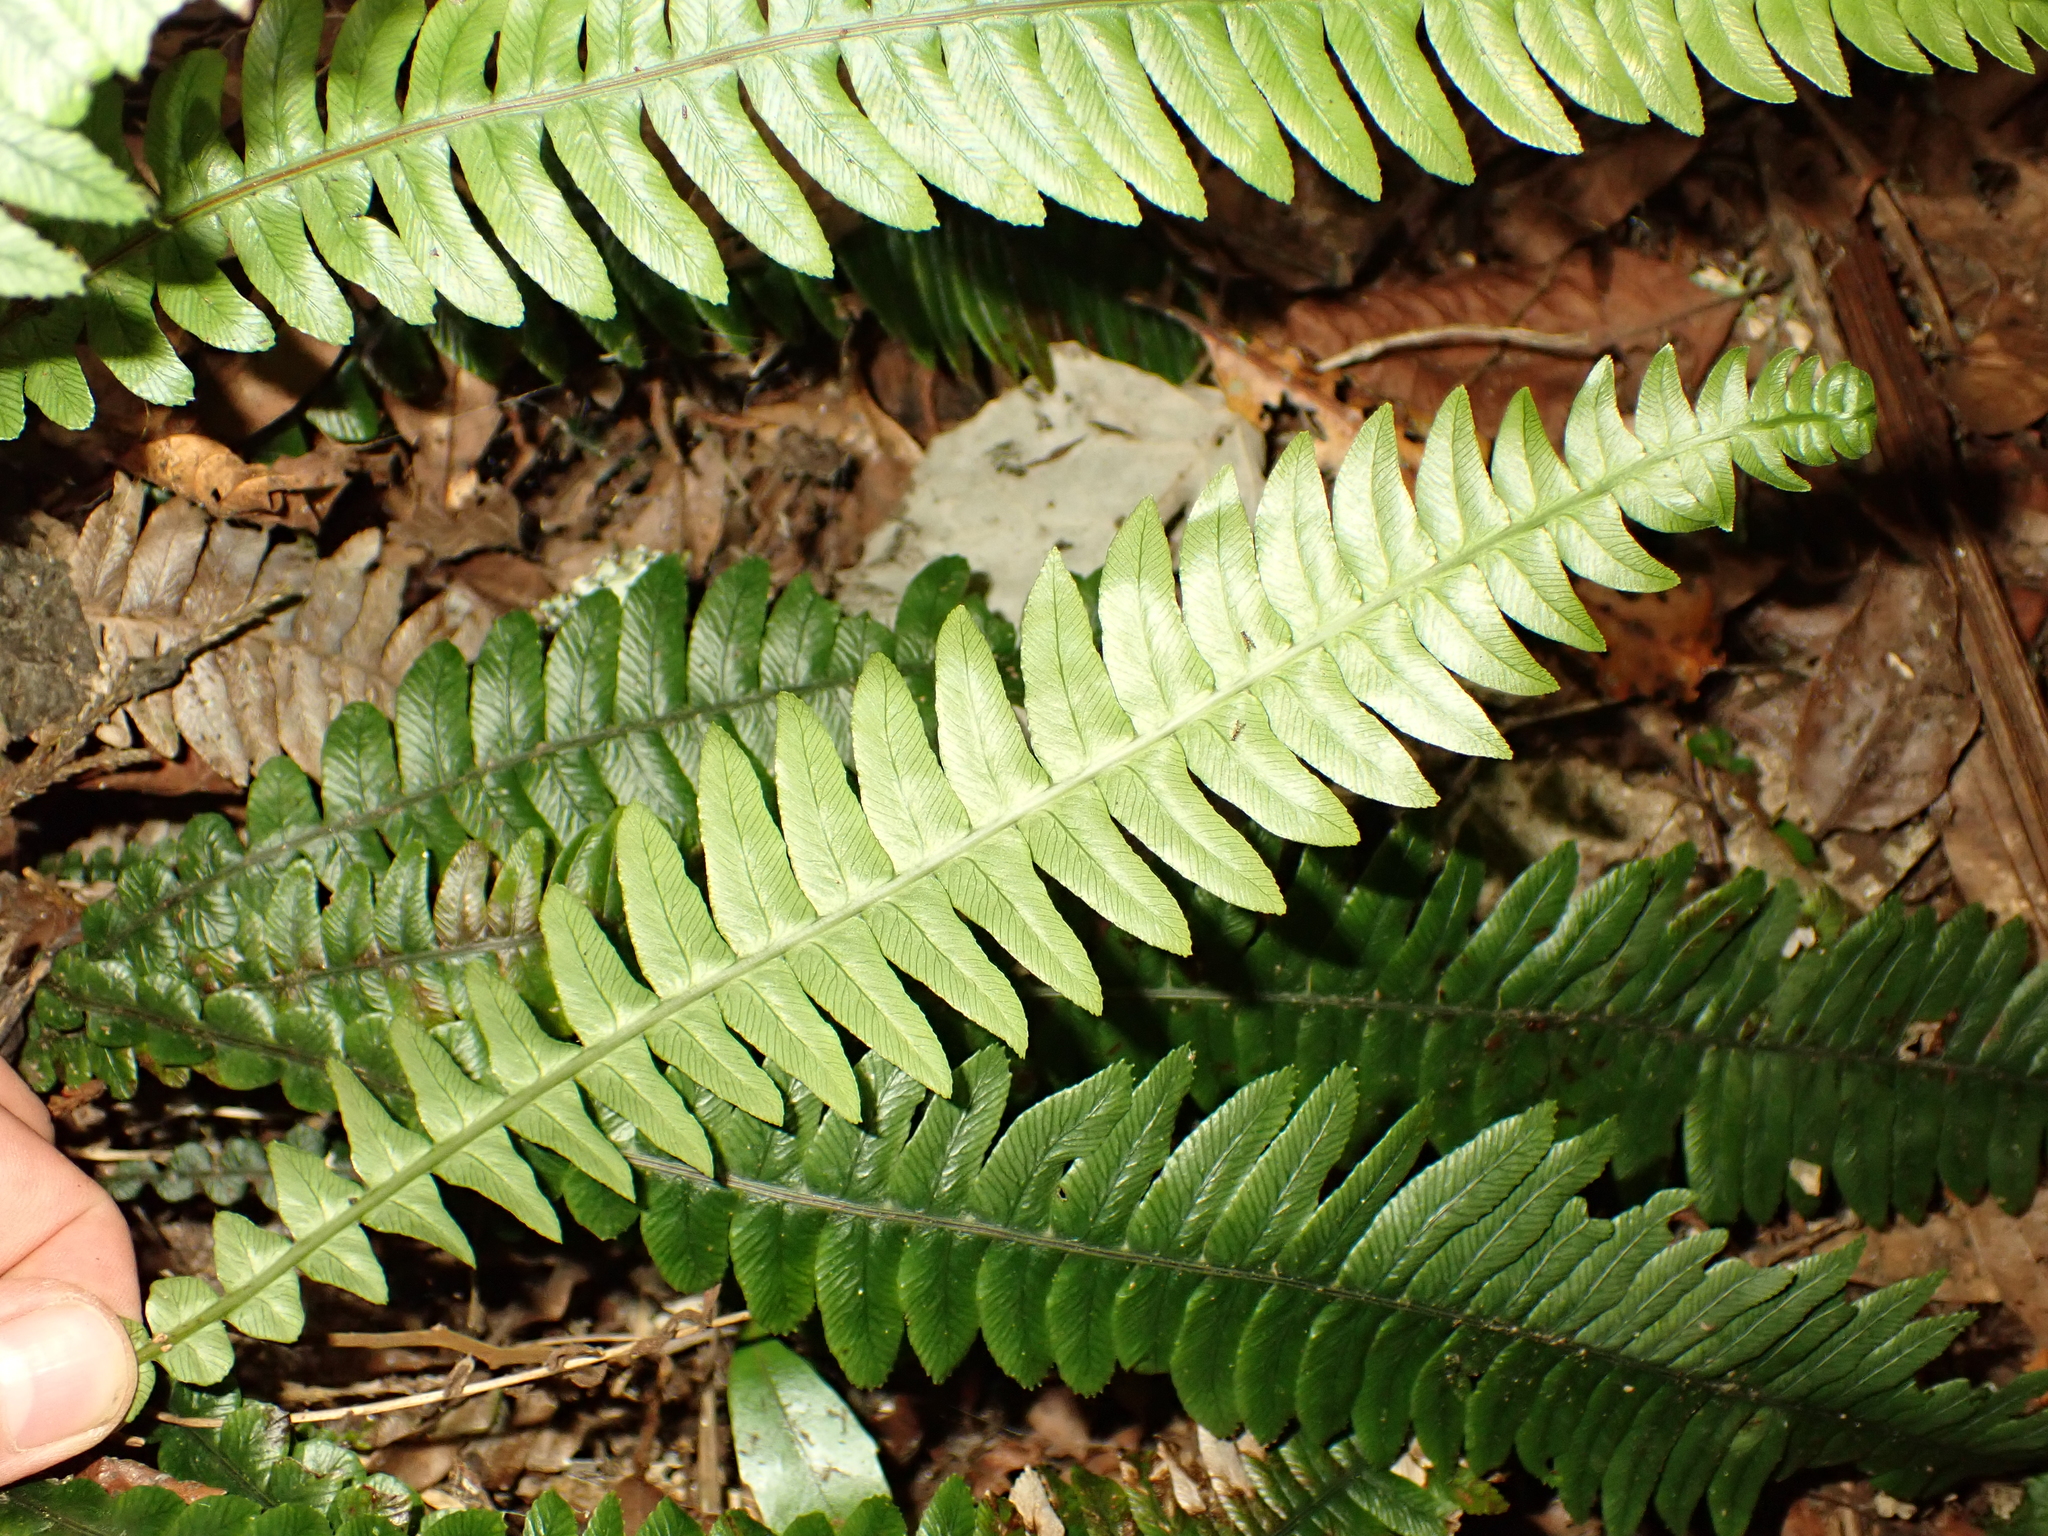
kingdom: Plantae
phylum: Tracheophyta
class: Polypodiopsida
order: Polypodiales
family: Blechnaceae
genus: Austroblechnum
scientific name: Austroblechnum lanceolatum
